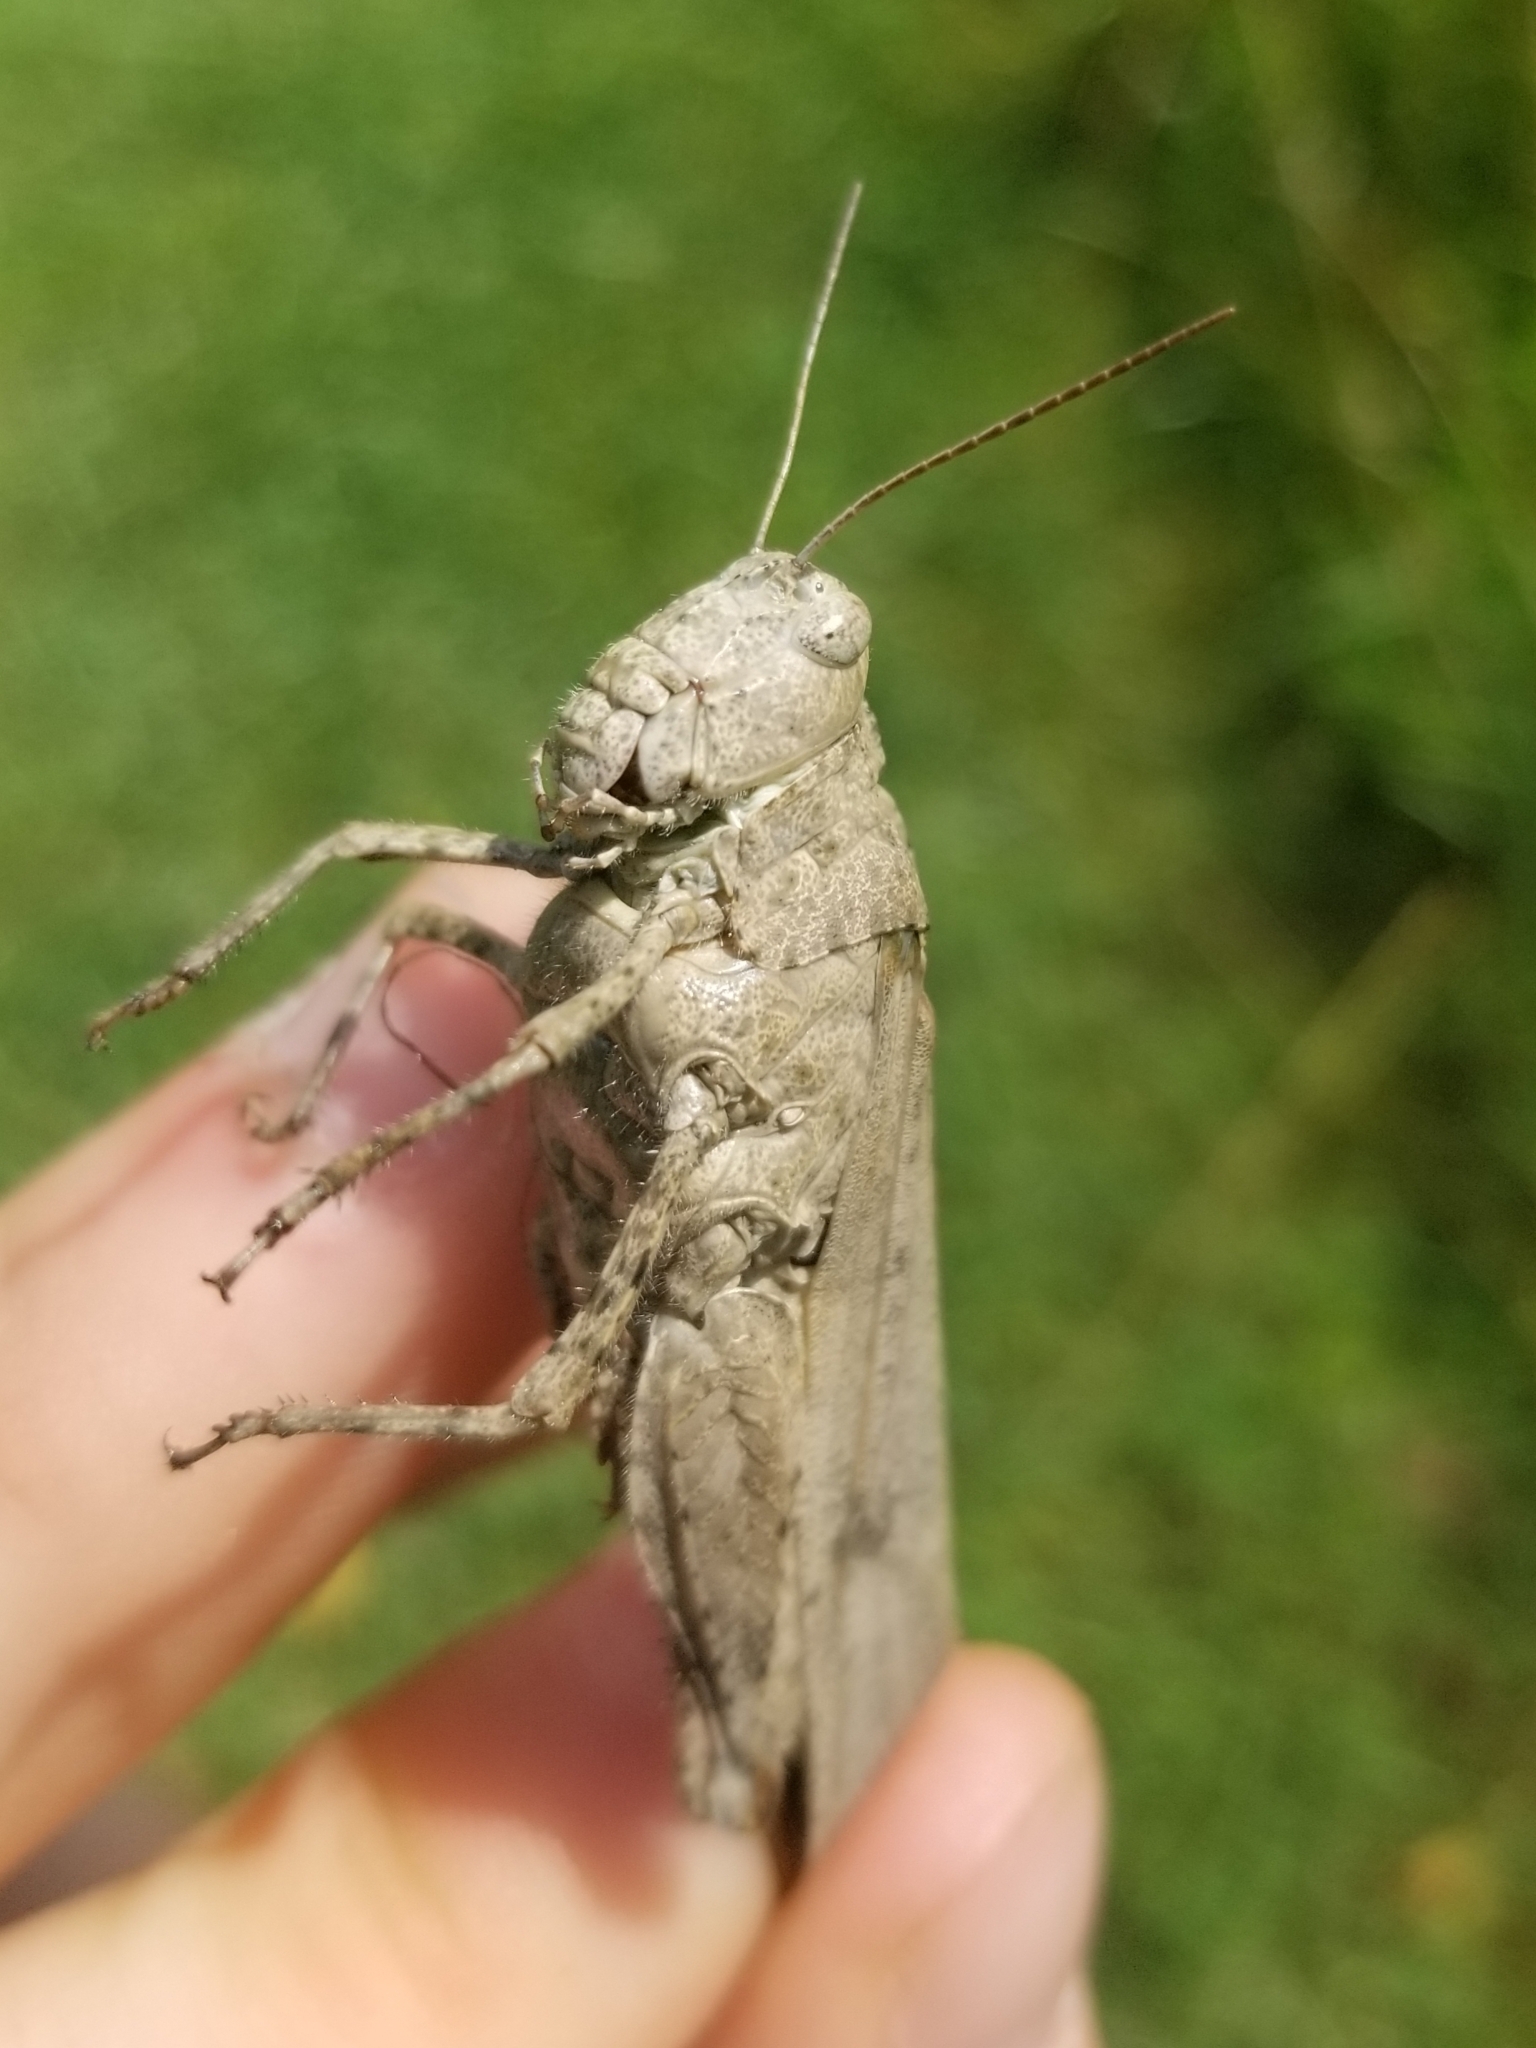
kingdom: Animalia
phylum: Arthropoda
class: Insecta
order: Orthoptera
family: Acrididae
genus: Dissosteira
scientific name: Dissosteira carolina
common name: Carolina grasshopper
